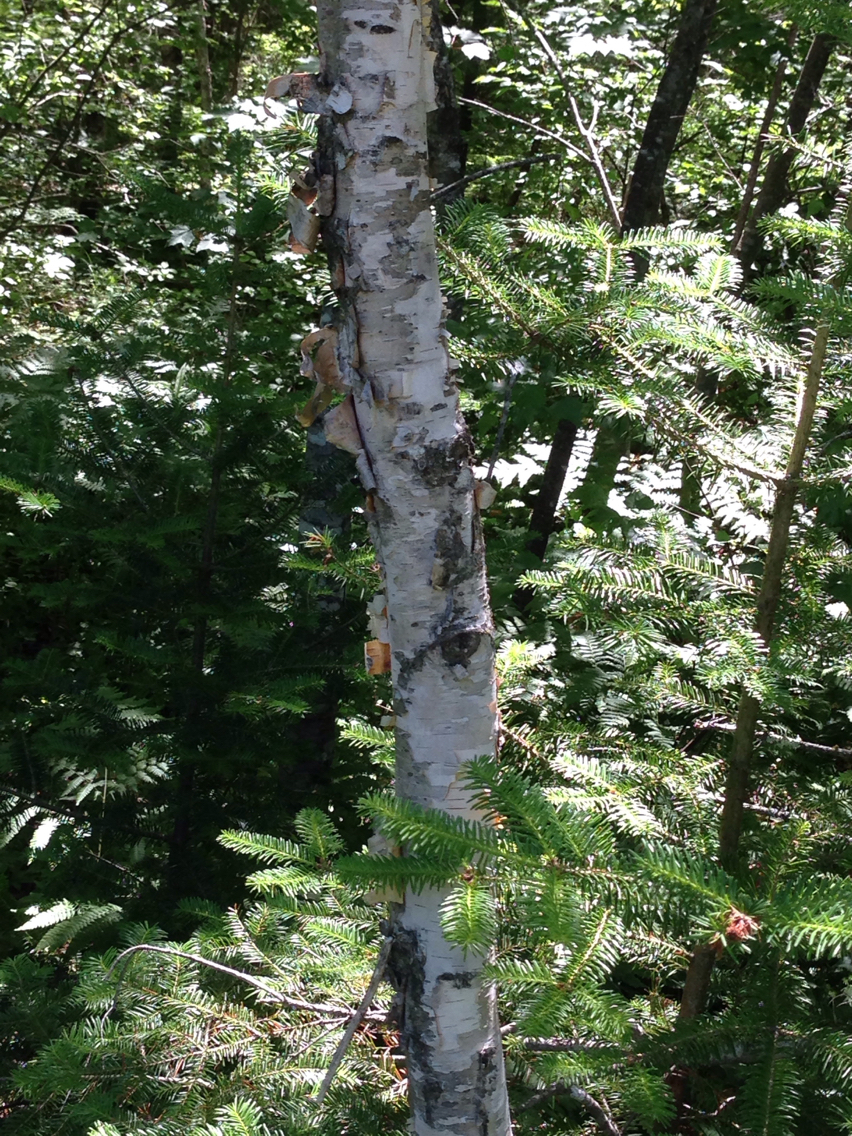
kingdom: Plantae
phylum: Tracheophyta
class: Magnoliopsida
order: Fagales
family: Betulaceae
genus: Betula
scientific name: Betula papyrifera
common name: Paper birch
